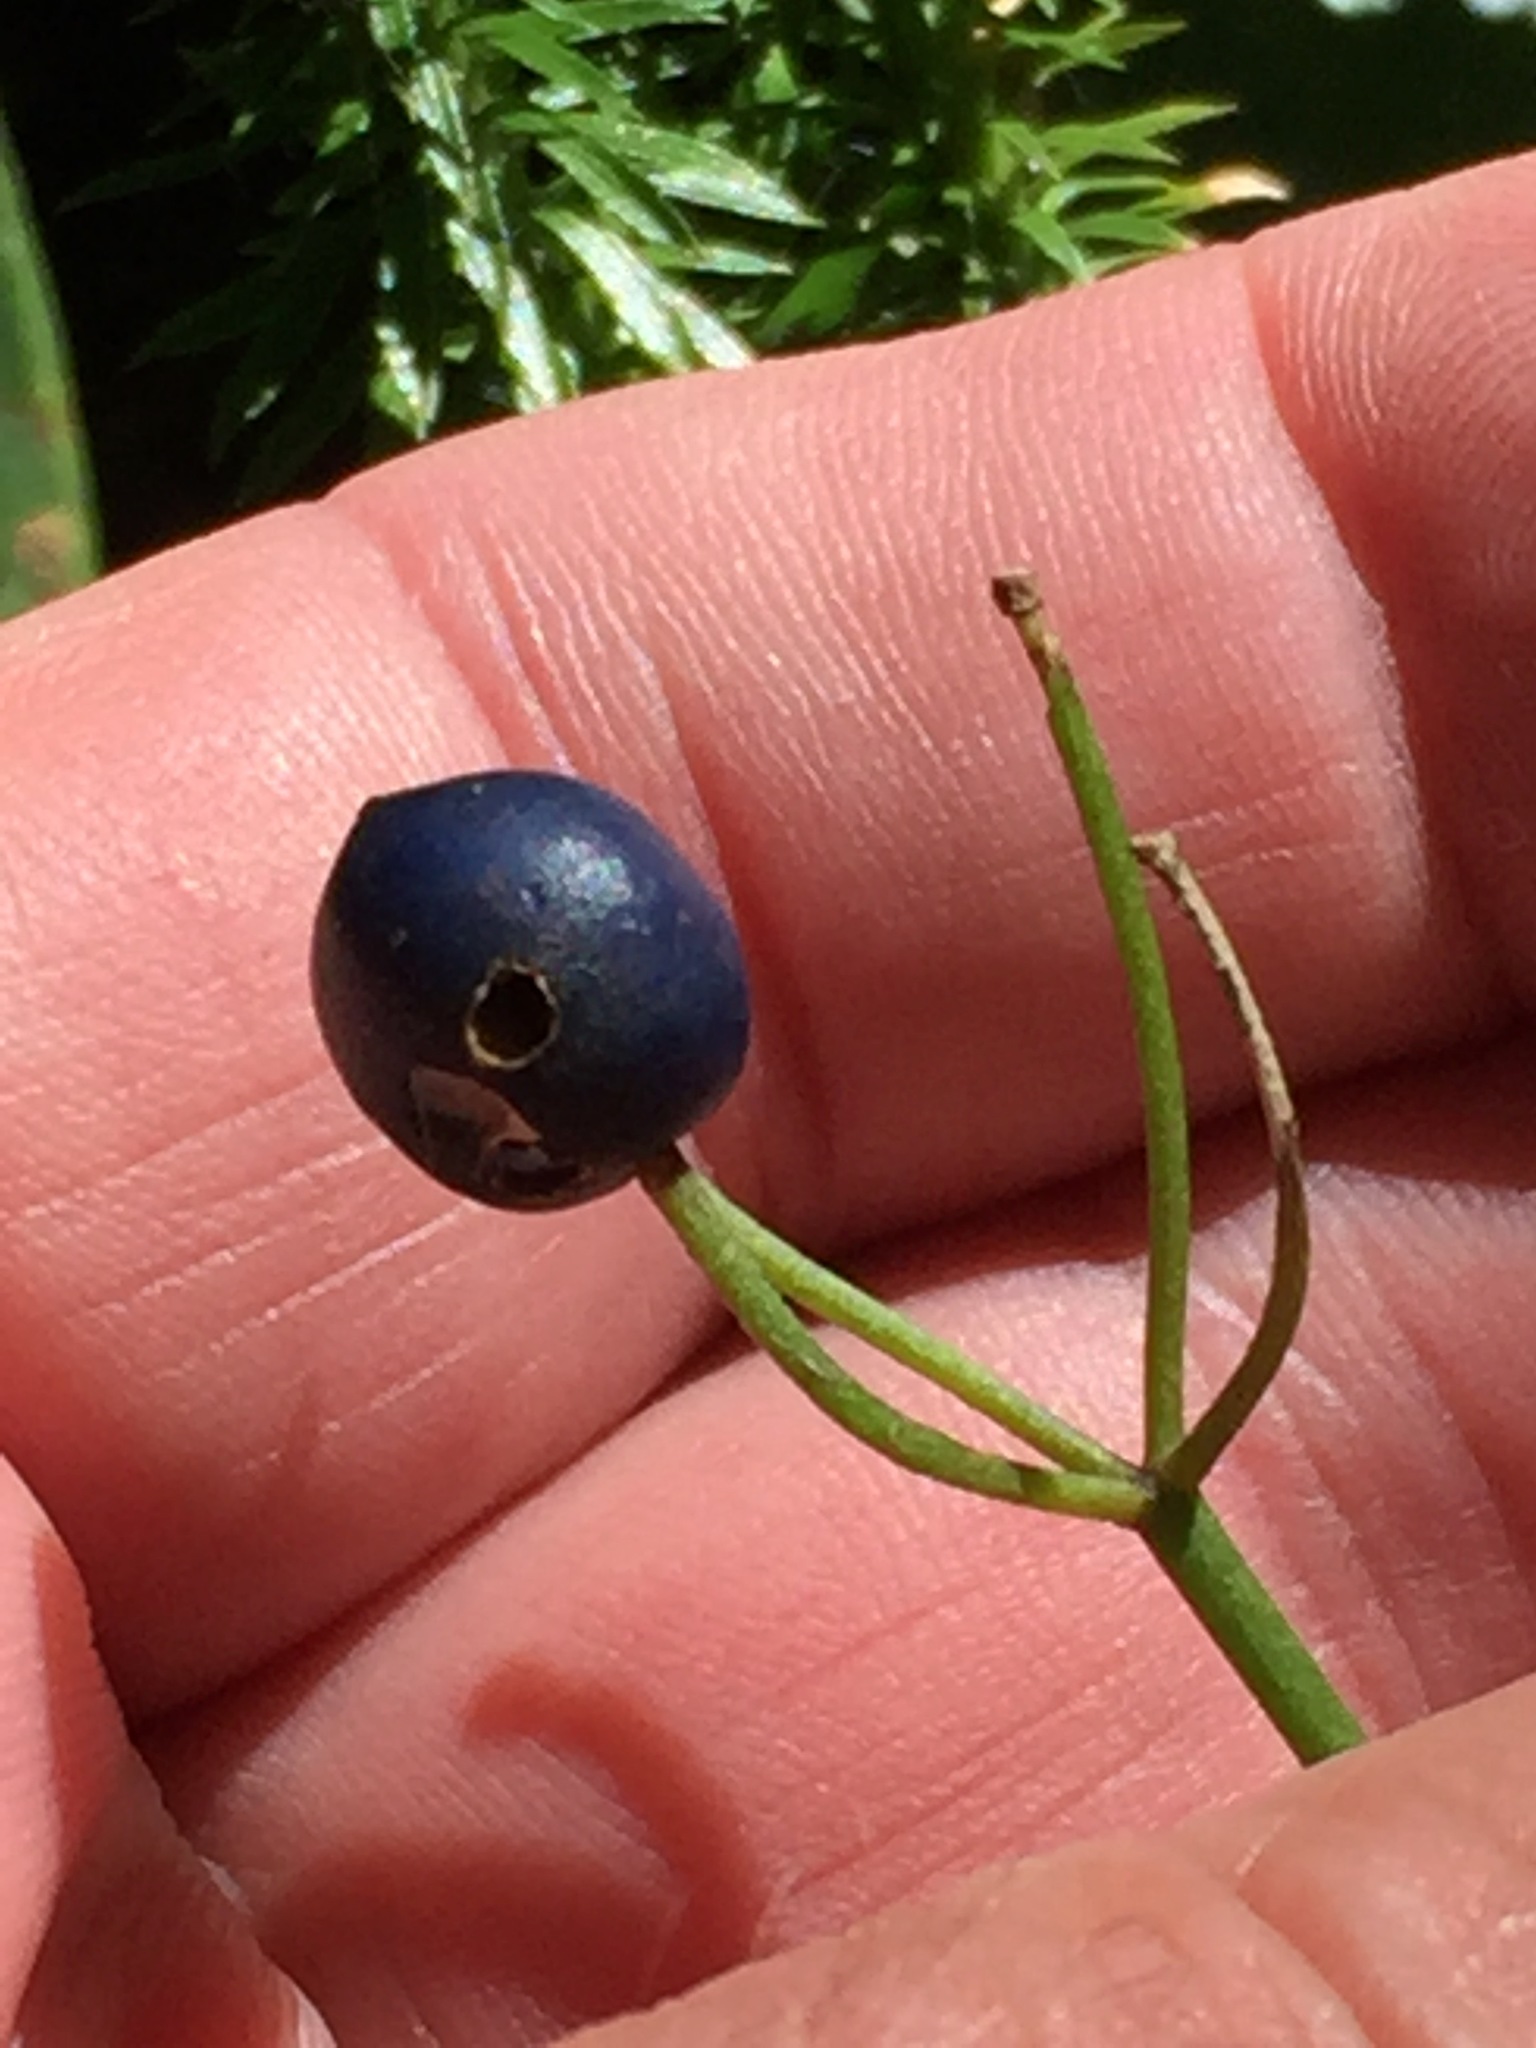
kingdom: Plantae
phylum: Tracheophyta
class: Liliopsida
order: Liliales
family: Liliaceae
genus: Clintonia
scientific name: Clintonia borealis
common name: Yellow clintonia
